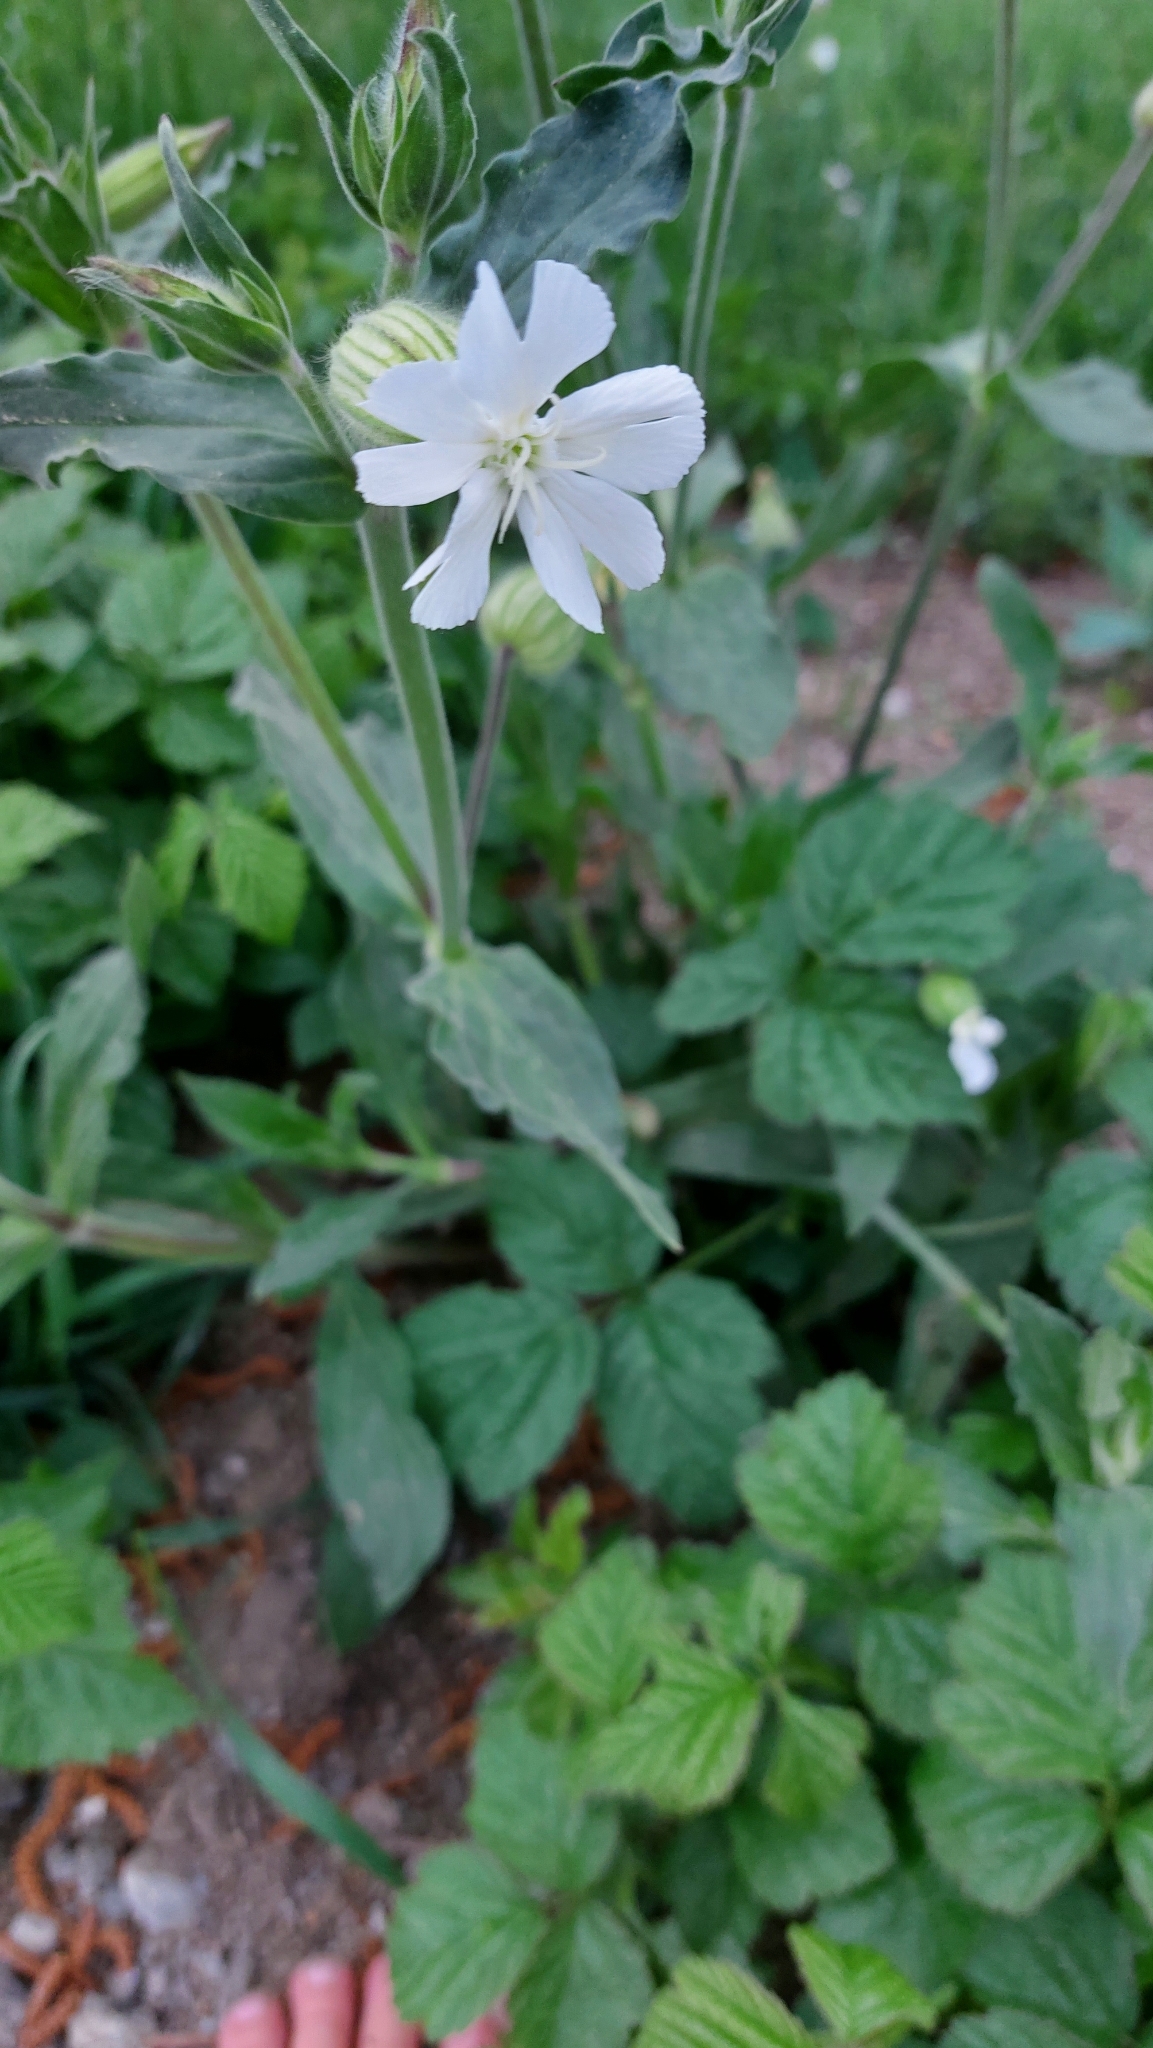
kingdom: Plantae
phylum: Tracheophyta
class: Magnoliopsida
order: Caryophyllales
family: Caryophyllaceae
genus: Silene
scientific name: Silene latifolia
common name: White campion
